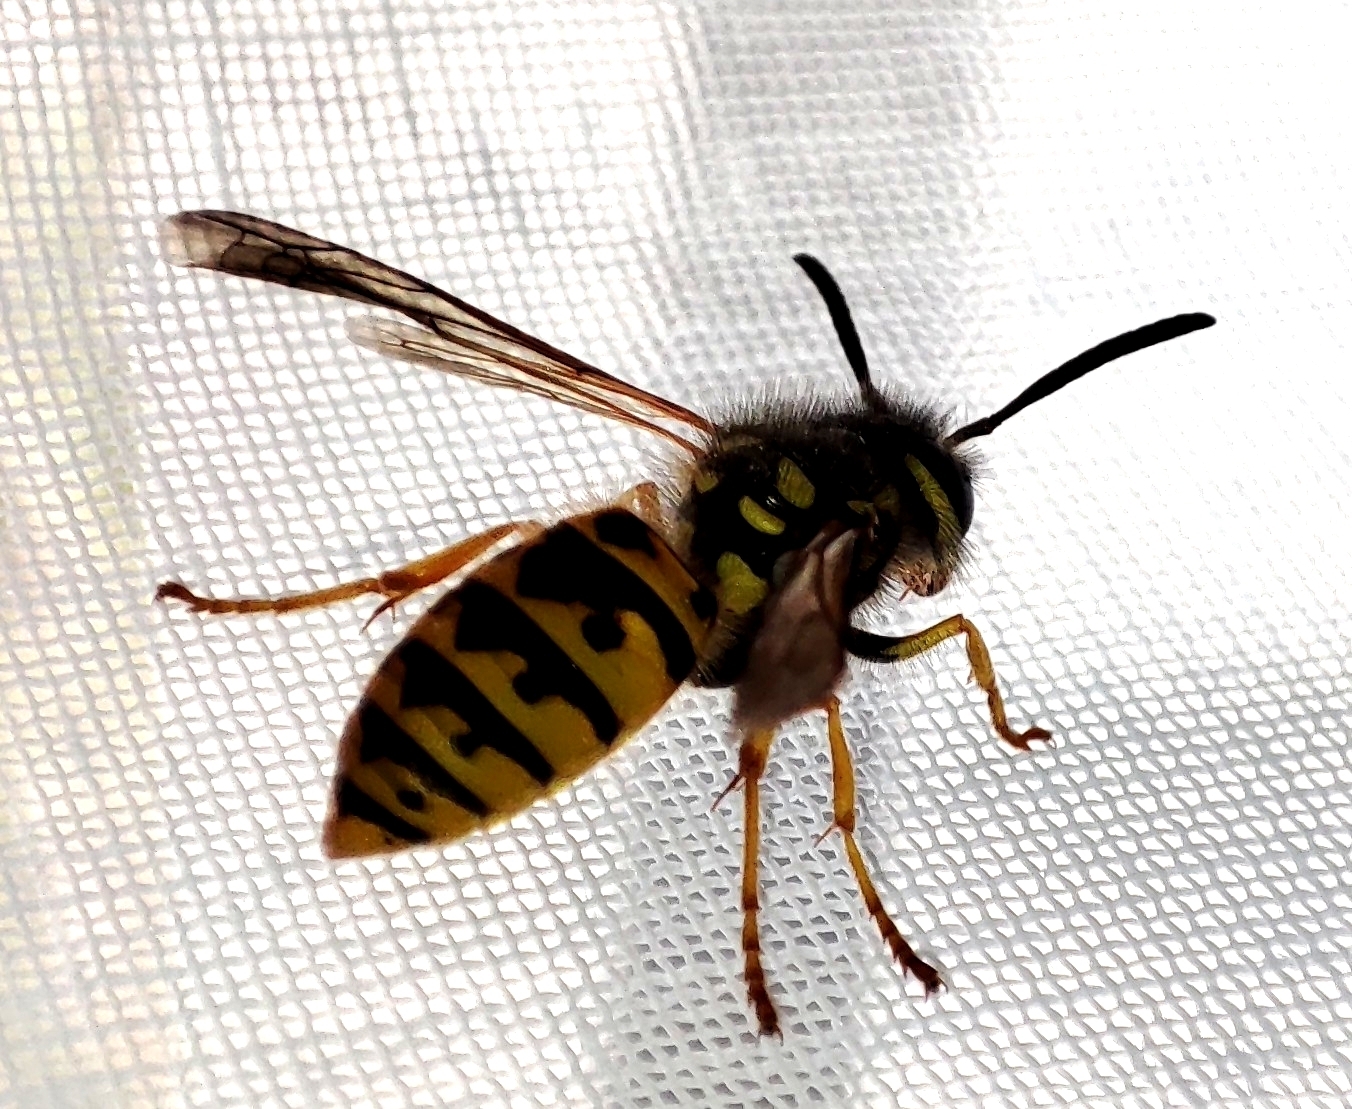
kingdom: Animalia
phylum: Arthropoda
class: Insecta
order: Hymenoptera
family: Vespidae
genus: Vespula
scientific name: Vespula germanica
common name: German wasp
